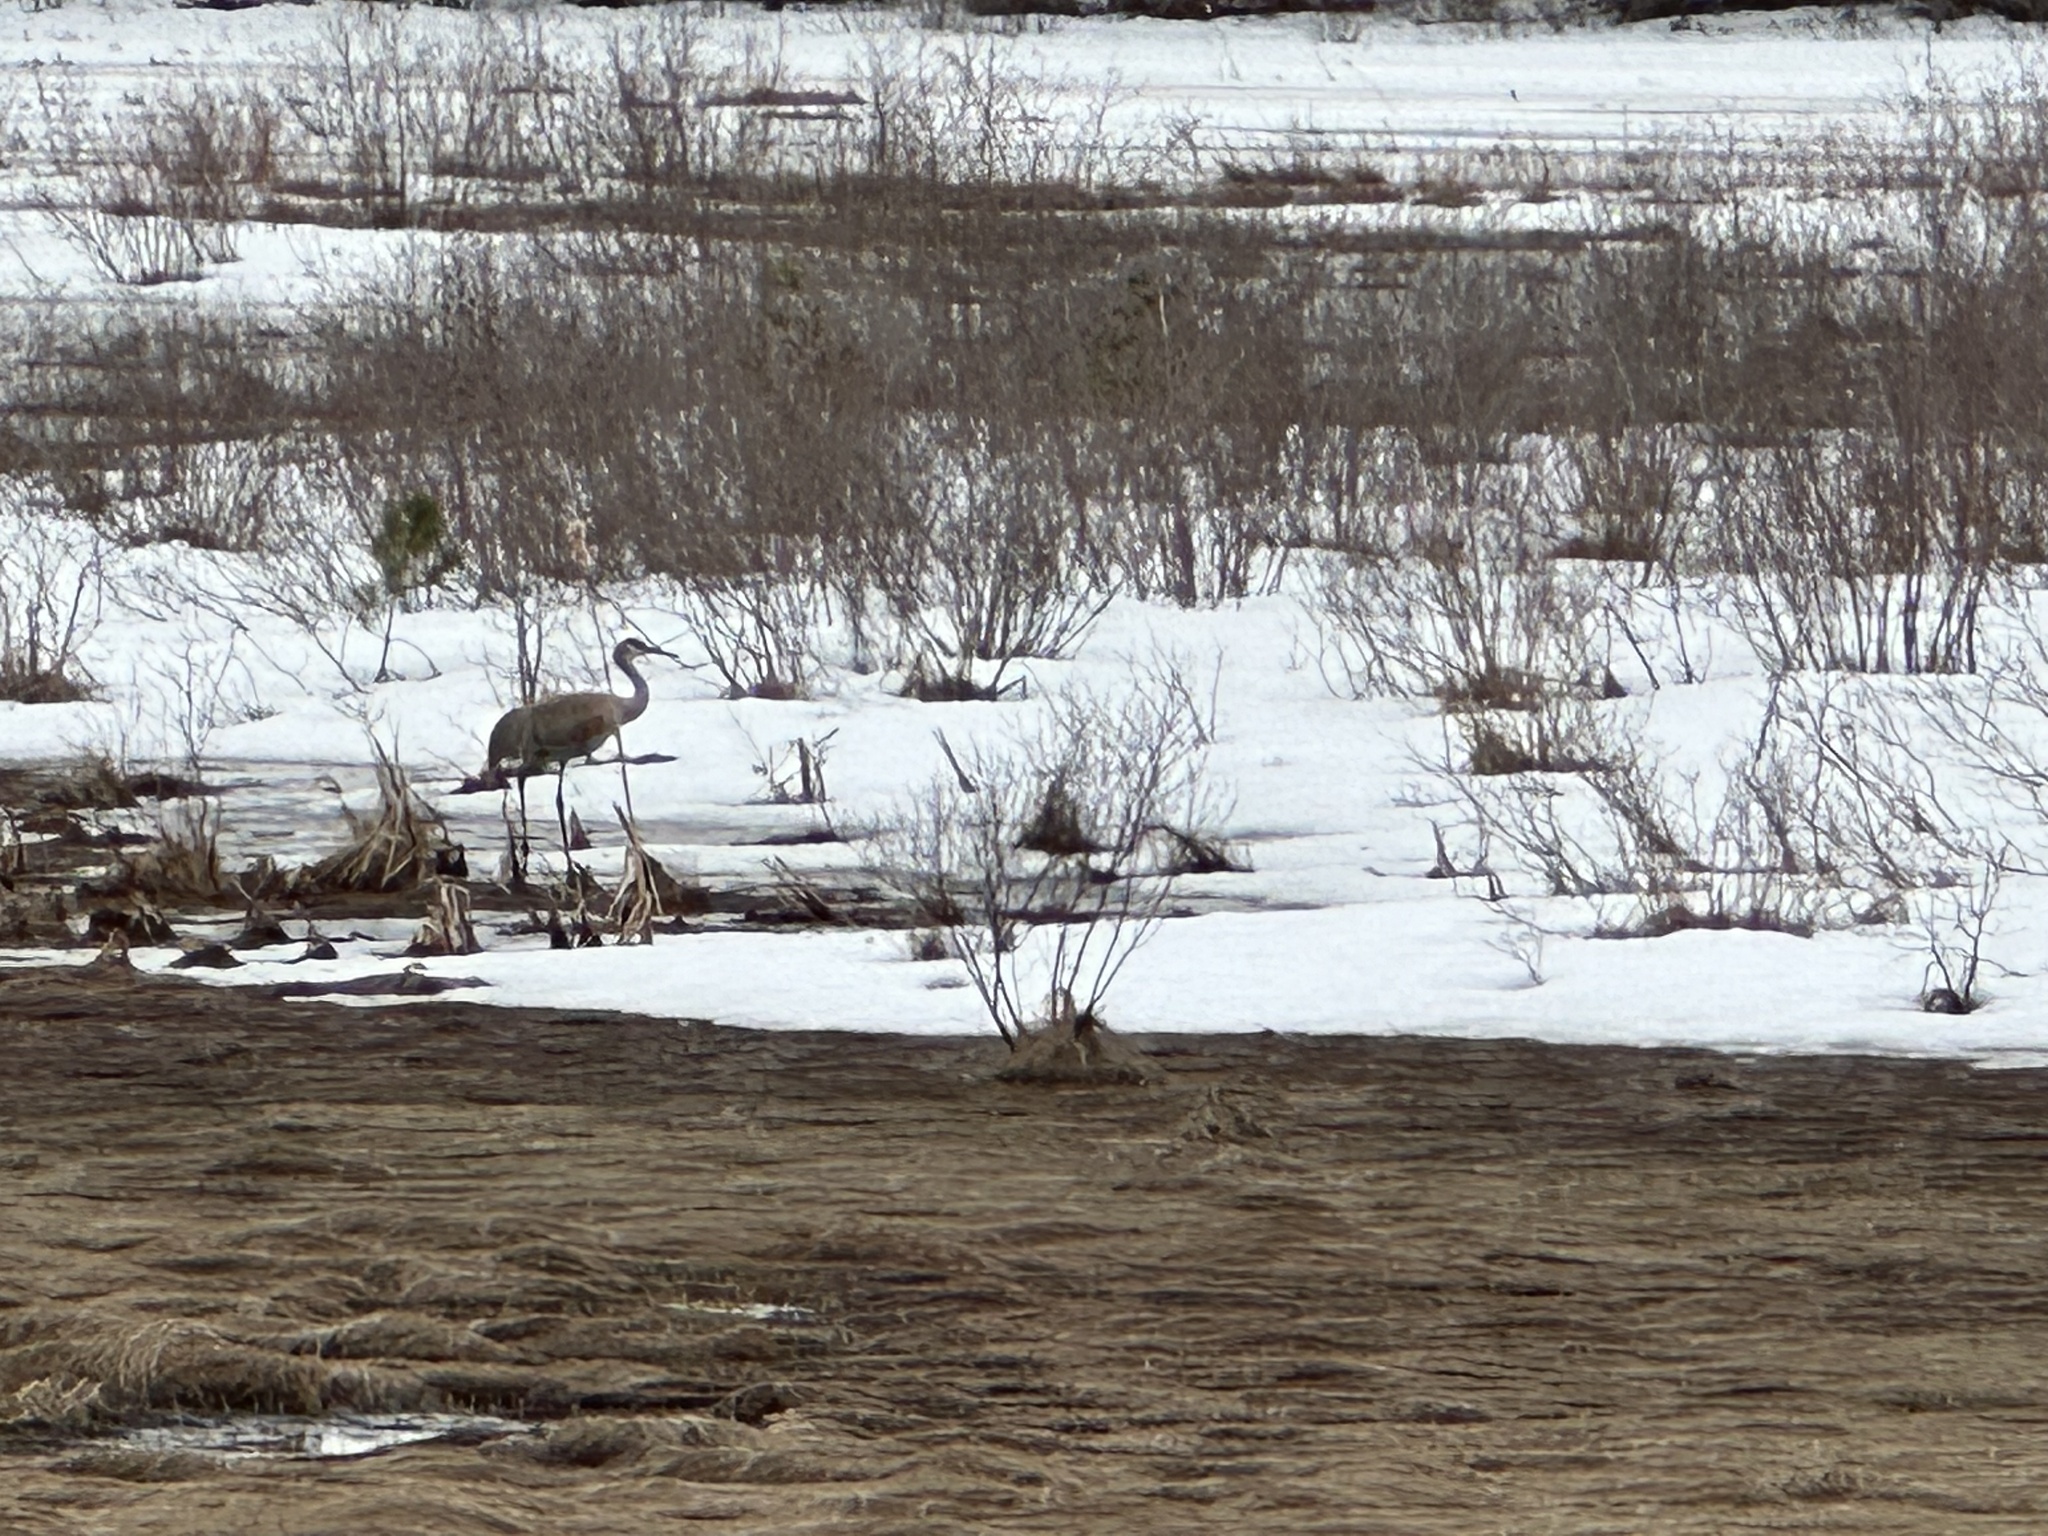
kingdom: Animalia
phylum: Chordata
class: Aves
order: Gruiformes
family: Gruidae
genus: Grus
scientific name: Grus canadensis
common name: Sandhill crane
